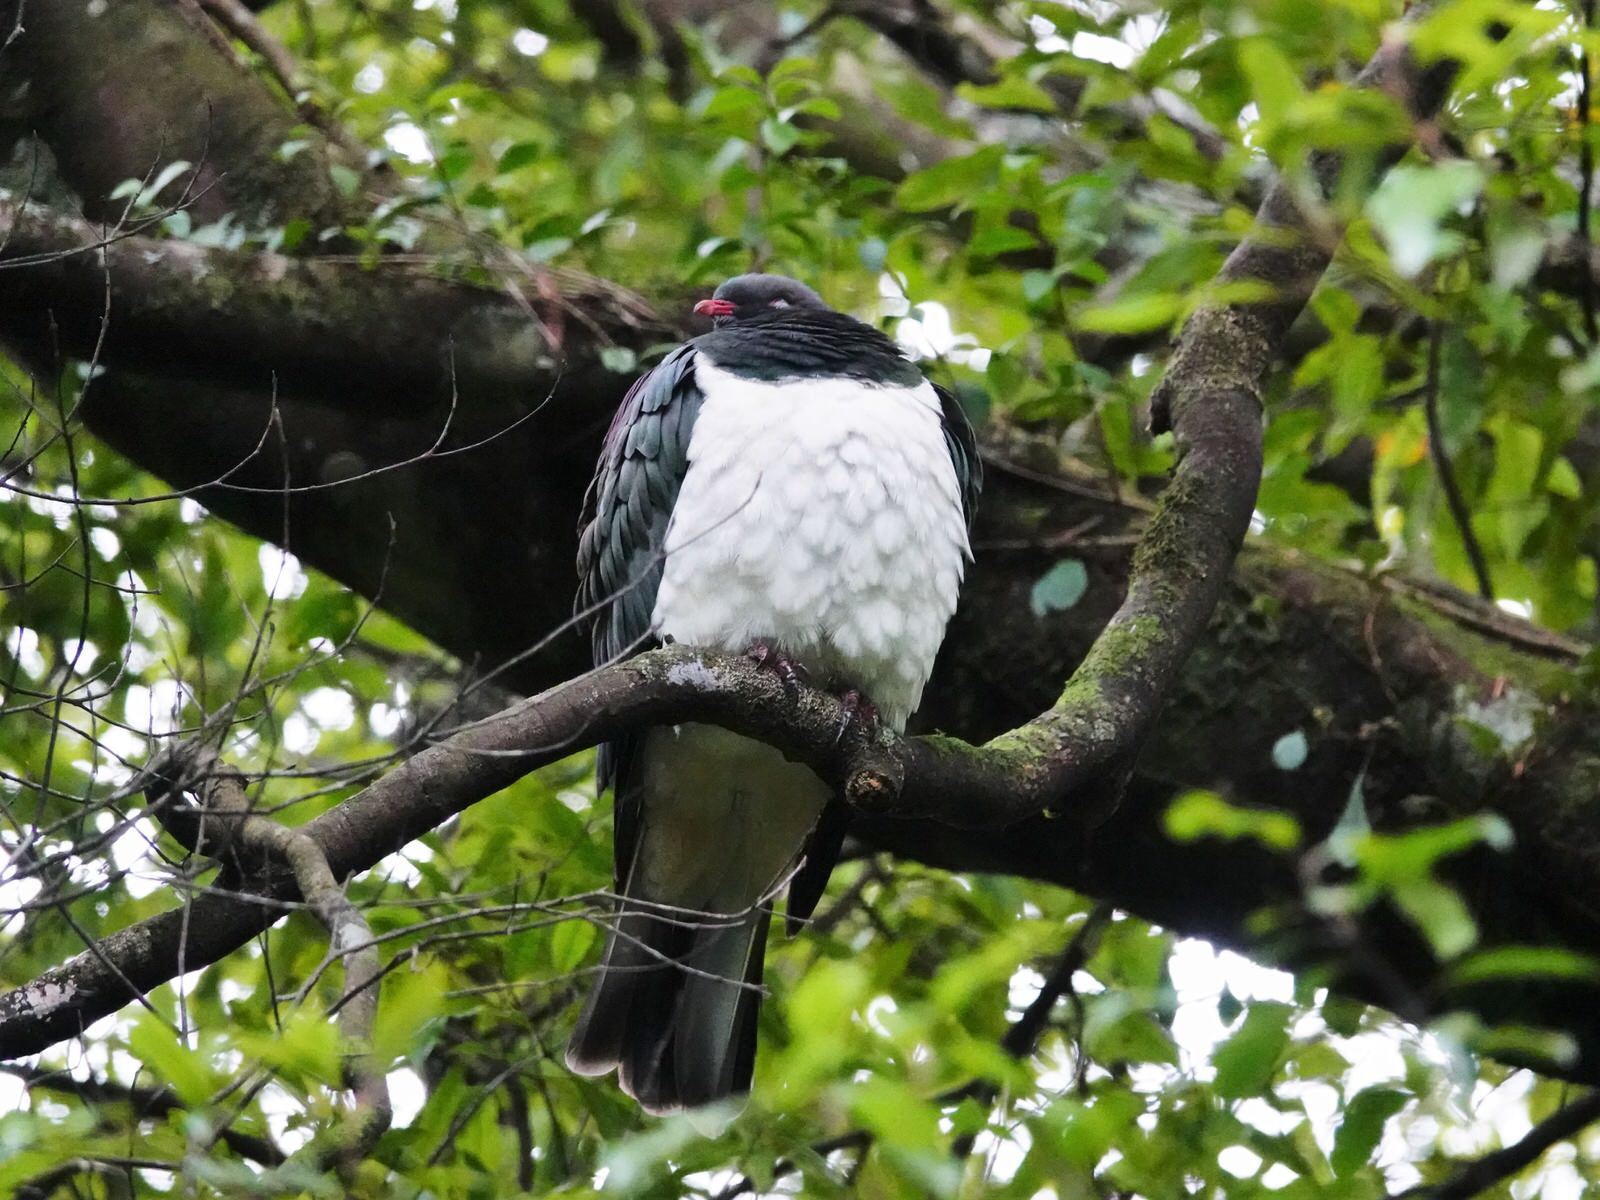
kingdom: Animalia
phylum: Chordata
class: Aves
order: Columbiformes
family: Columbidae
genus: Hemiphaga
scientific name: Hemiphaga novaeseelandiae
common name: New zealand pigeon
